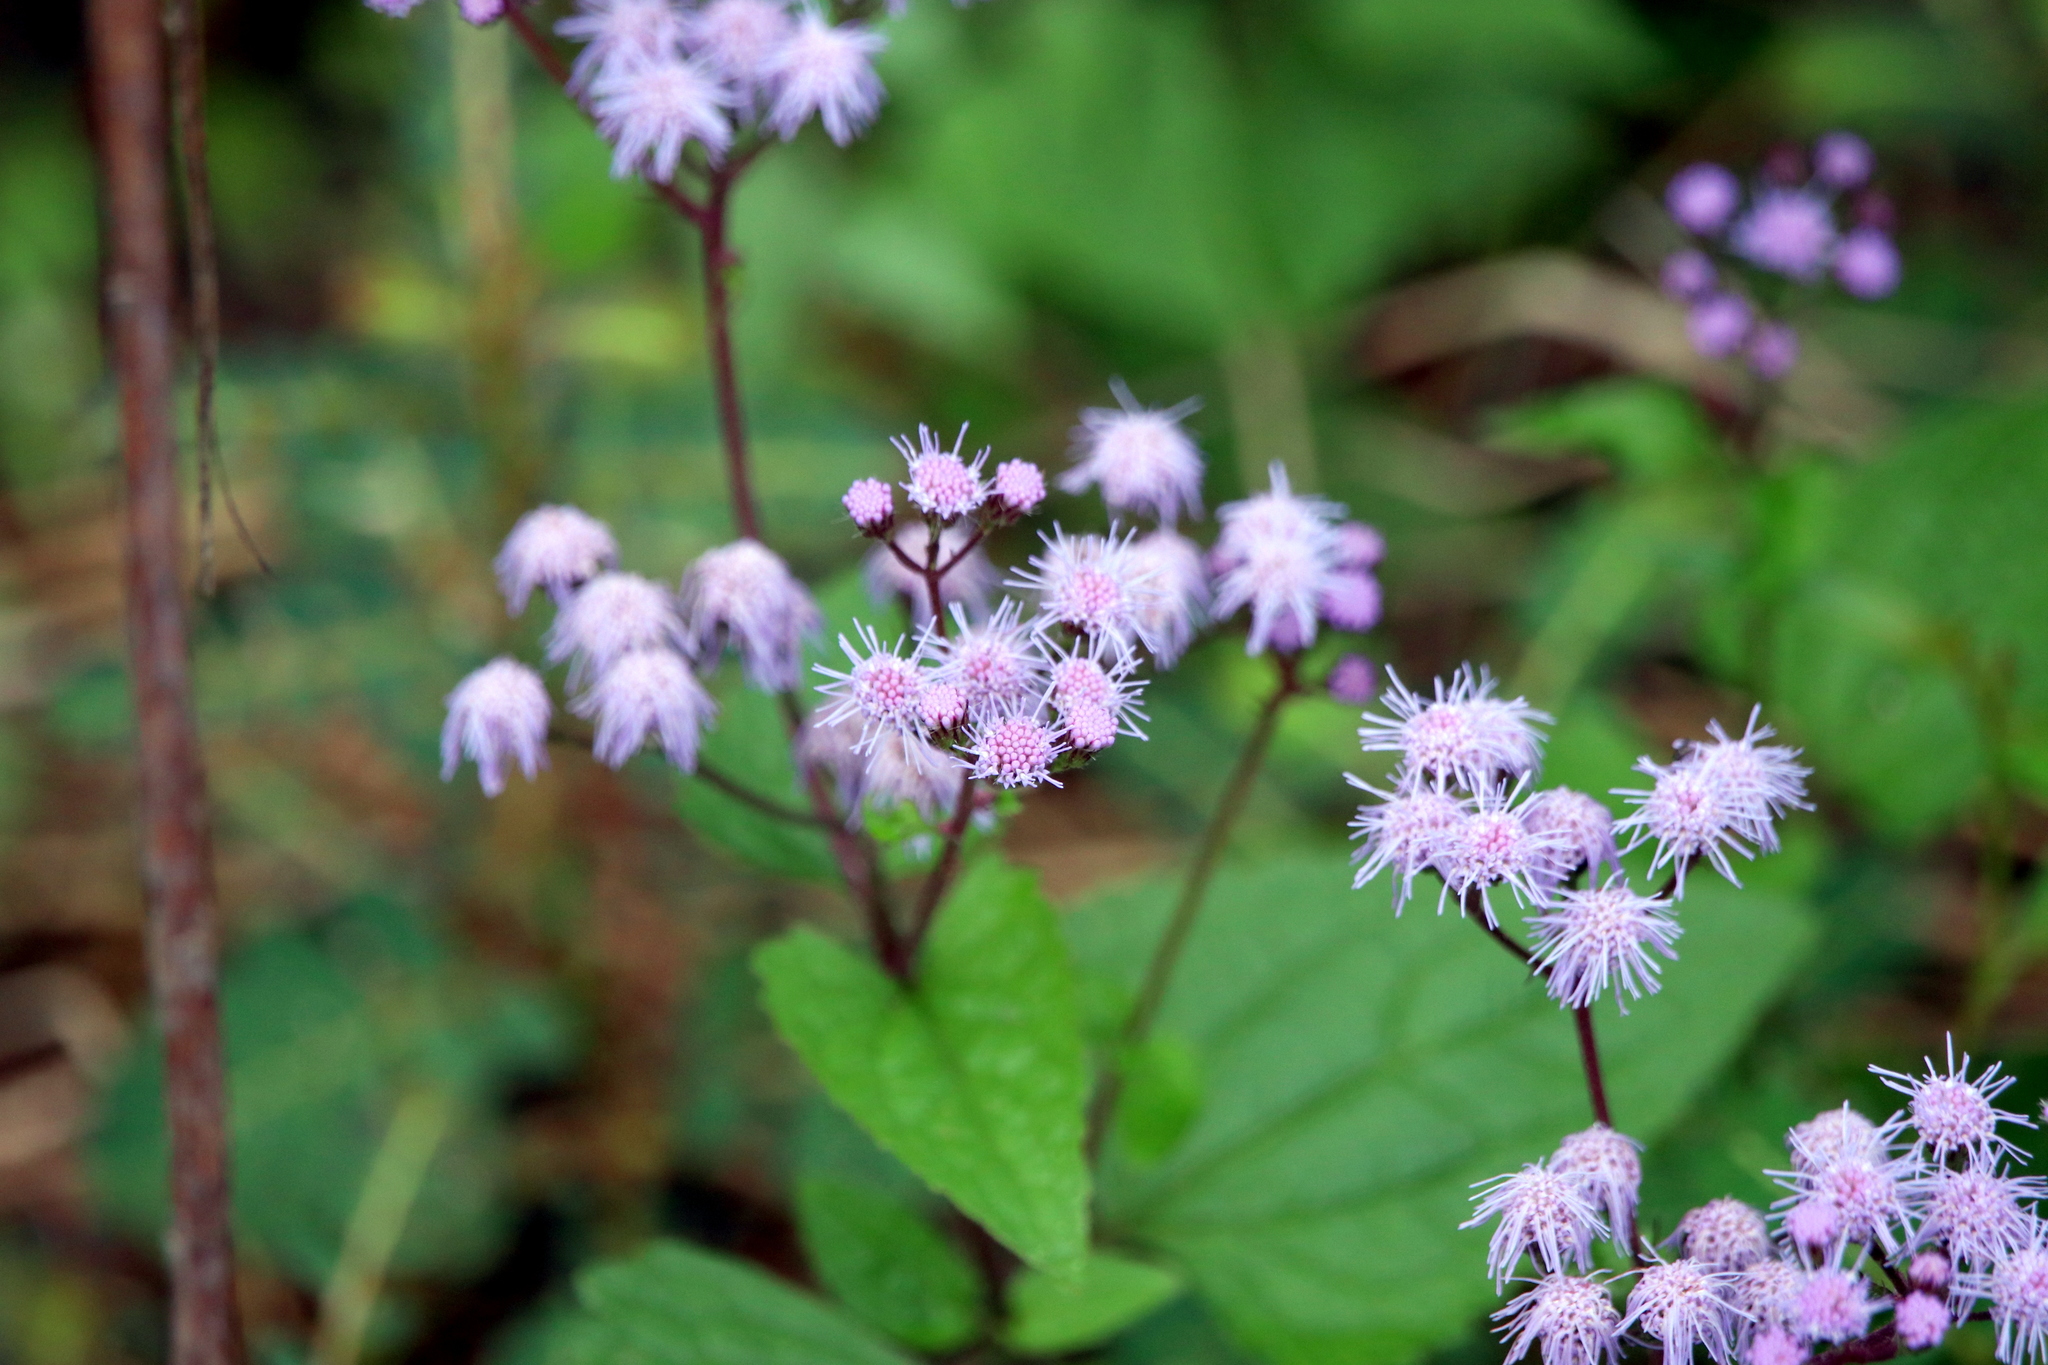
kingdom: Plantae
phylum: Tracheophyta
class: Magnoliopsida
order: Asterales
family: Asteraceae
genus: Conoclinium
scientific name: Conoclinium coelestinum
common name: Blue mistflower
